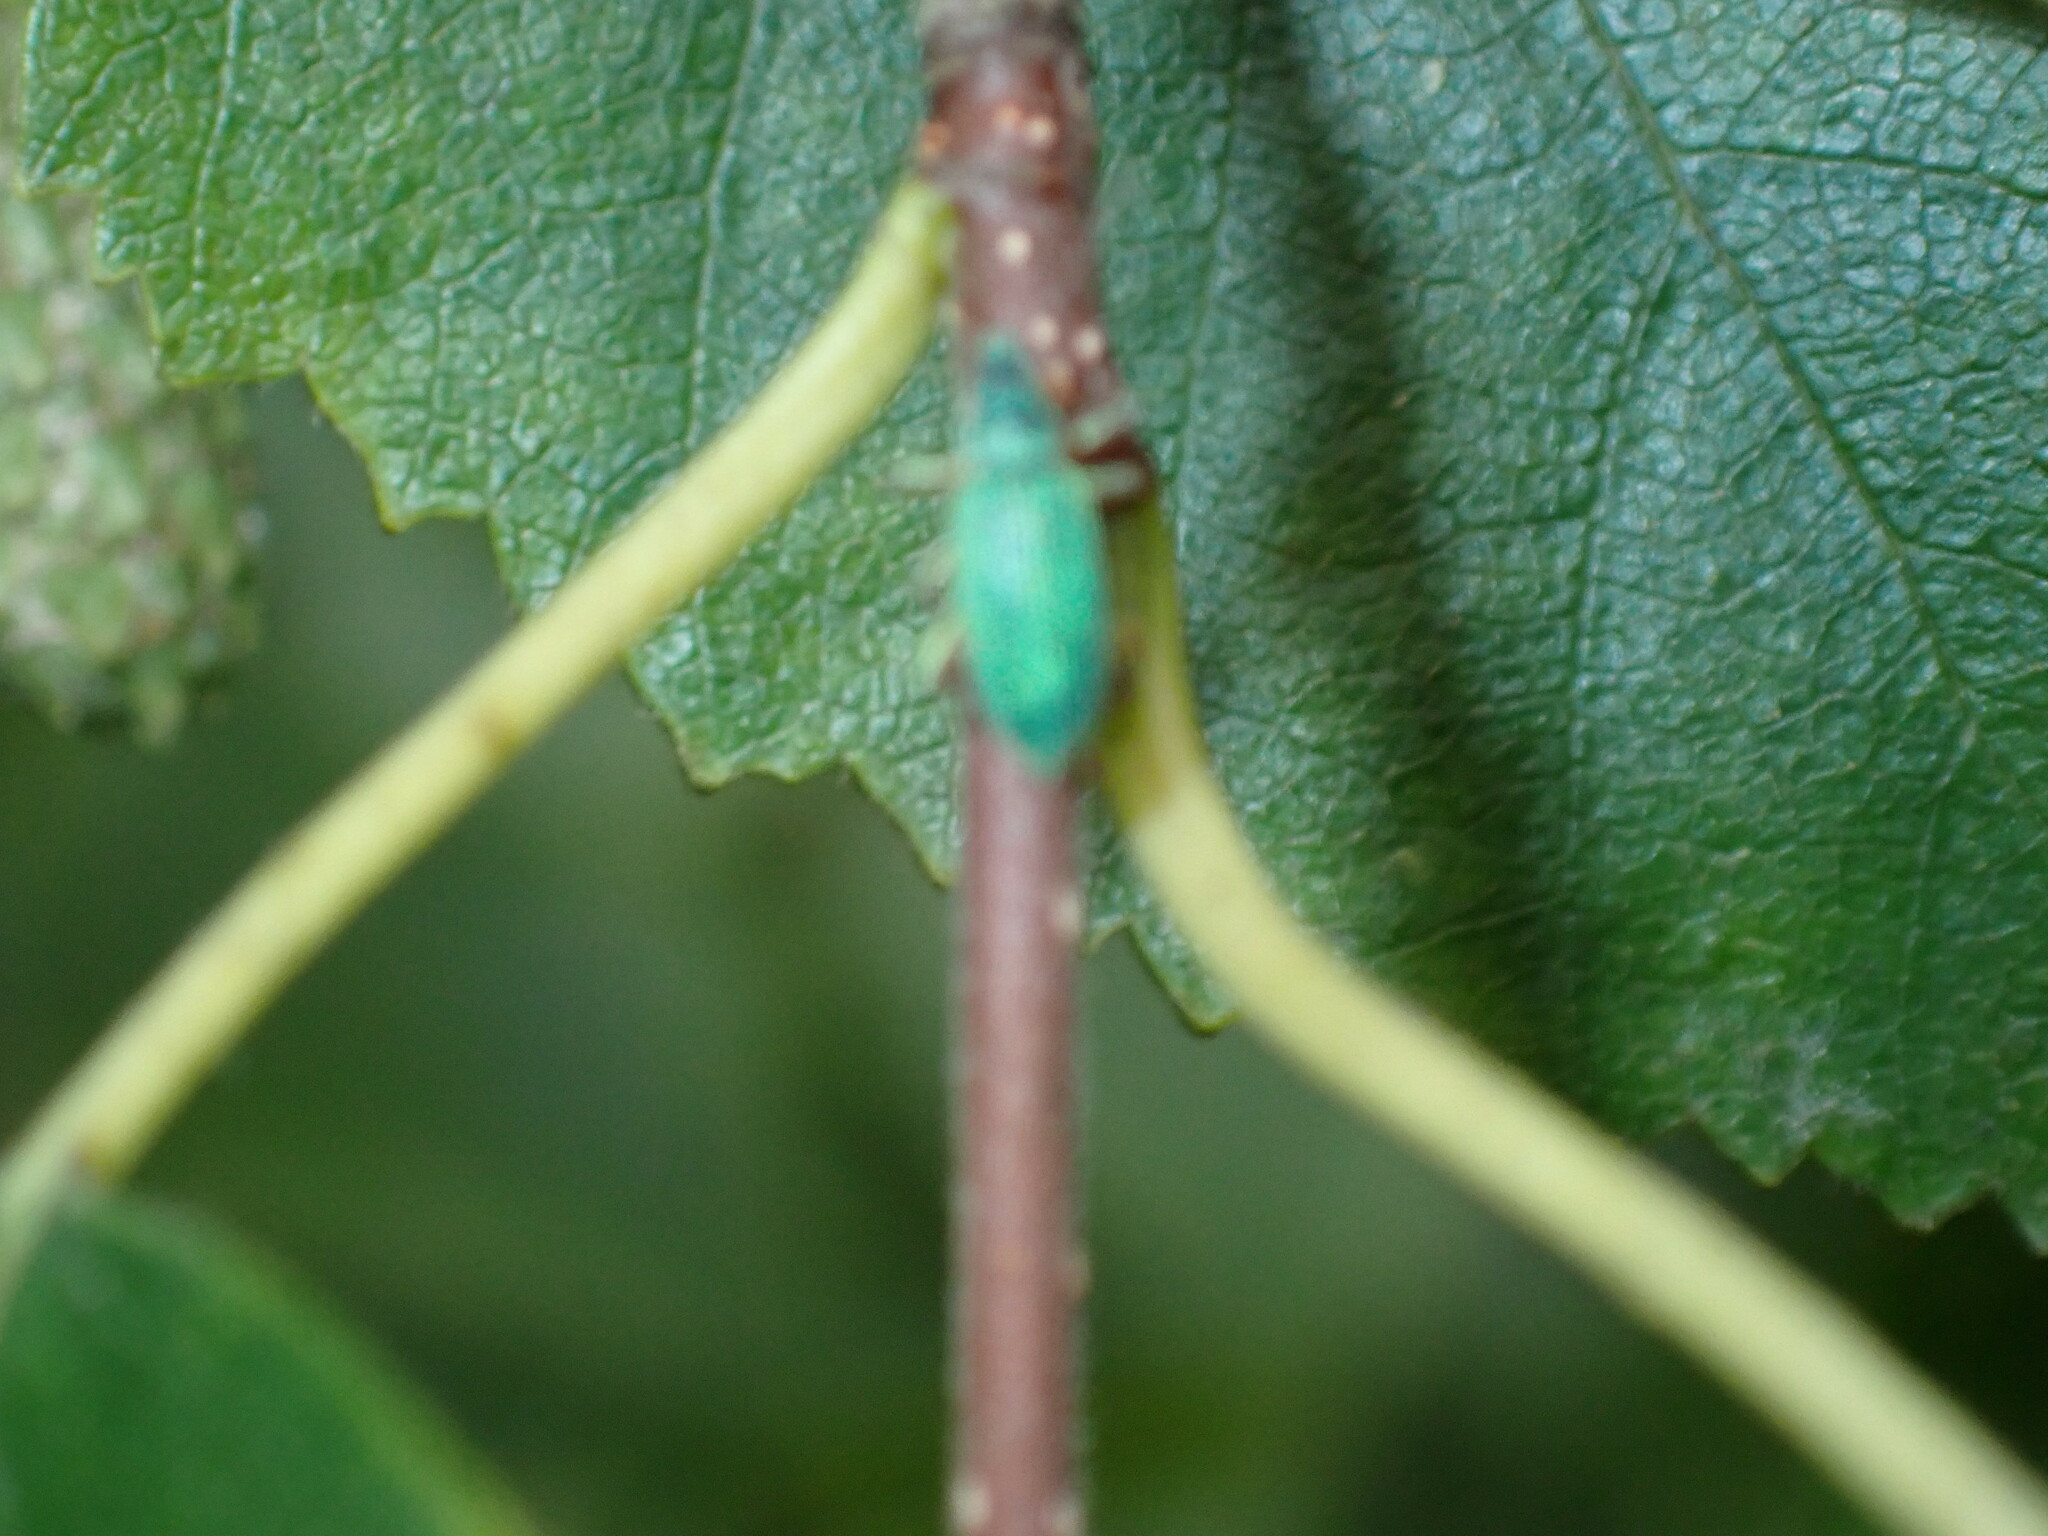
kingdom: Animalia
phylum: Arthropoda
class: Insecta
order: Coleoptera
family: Curculionidae
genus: Polydrusus
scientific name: Polydrusus formosus
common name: Weevil
